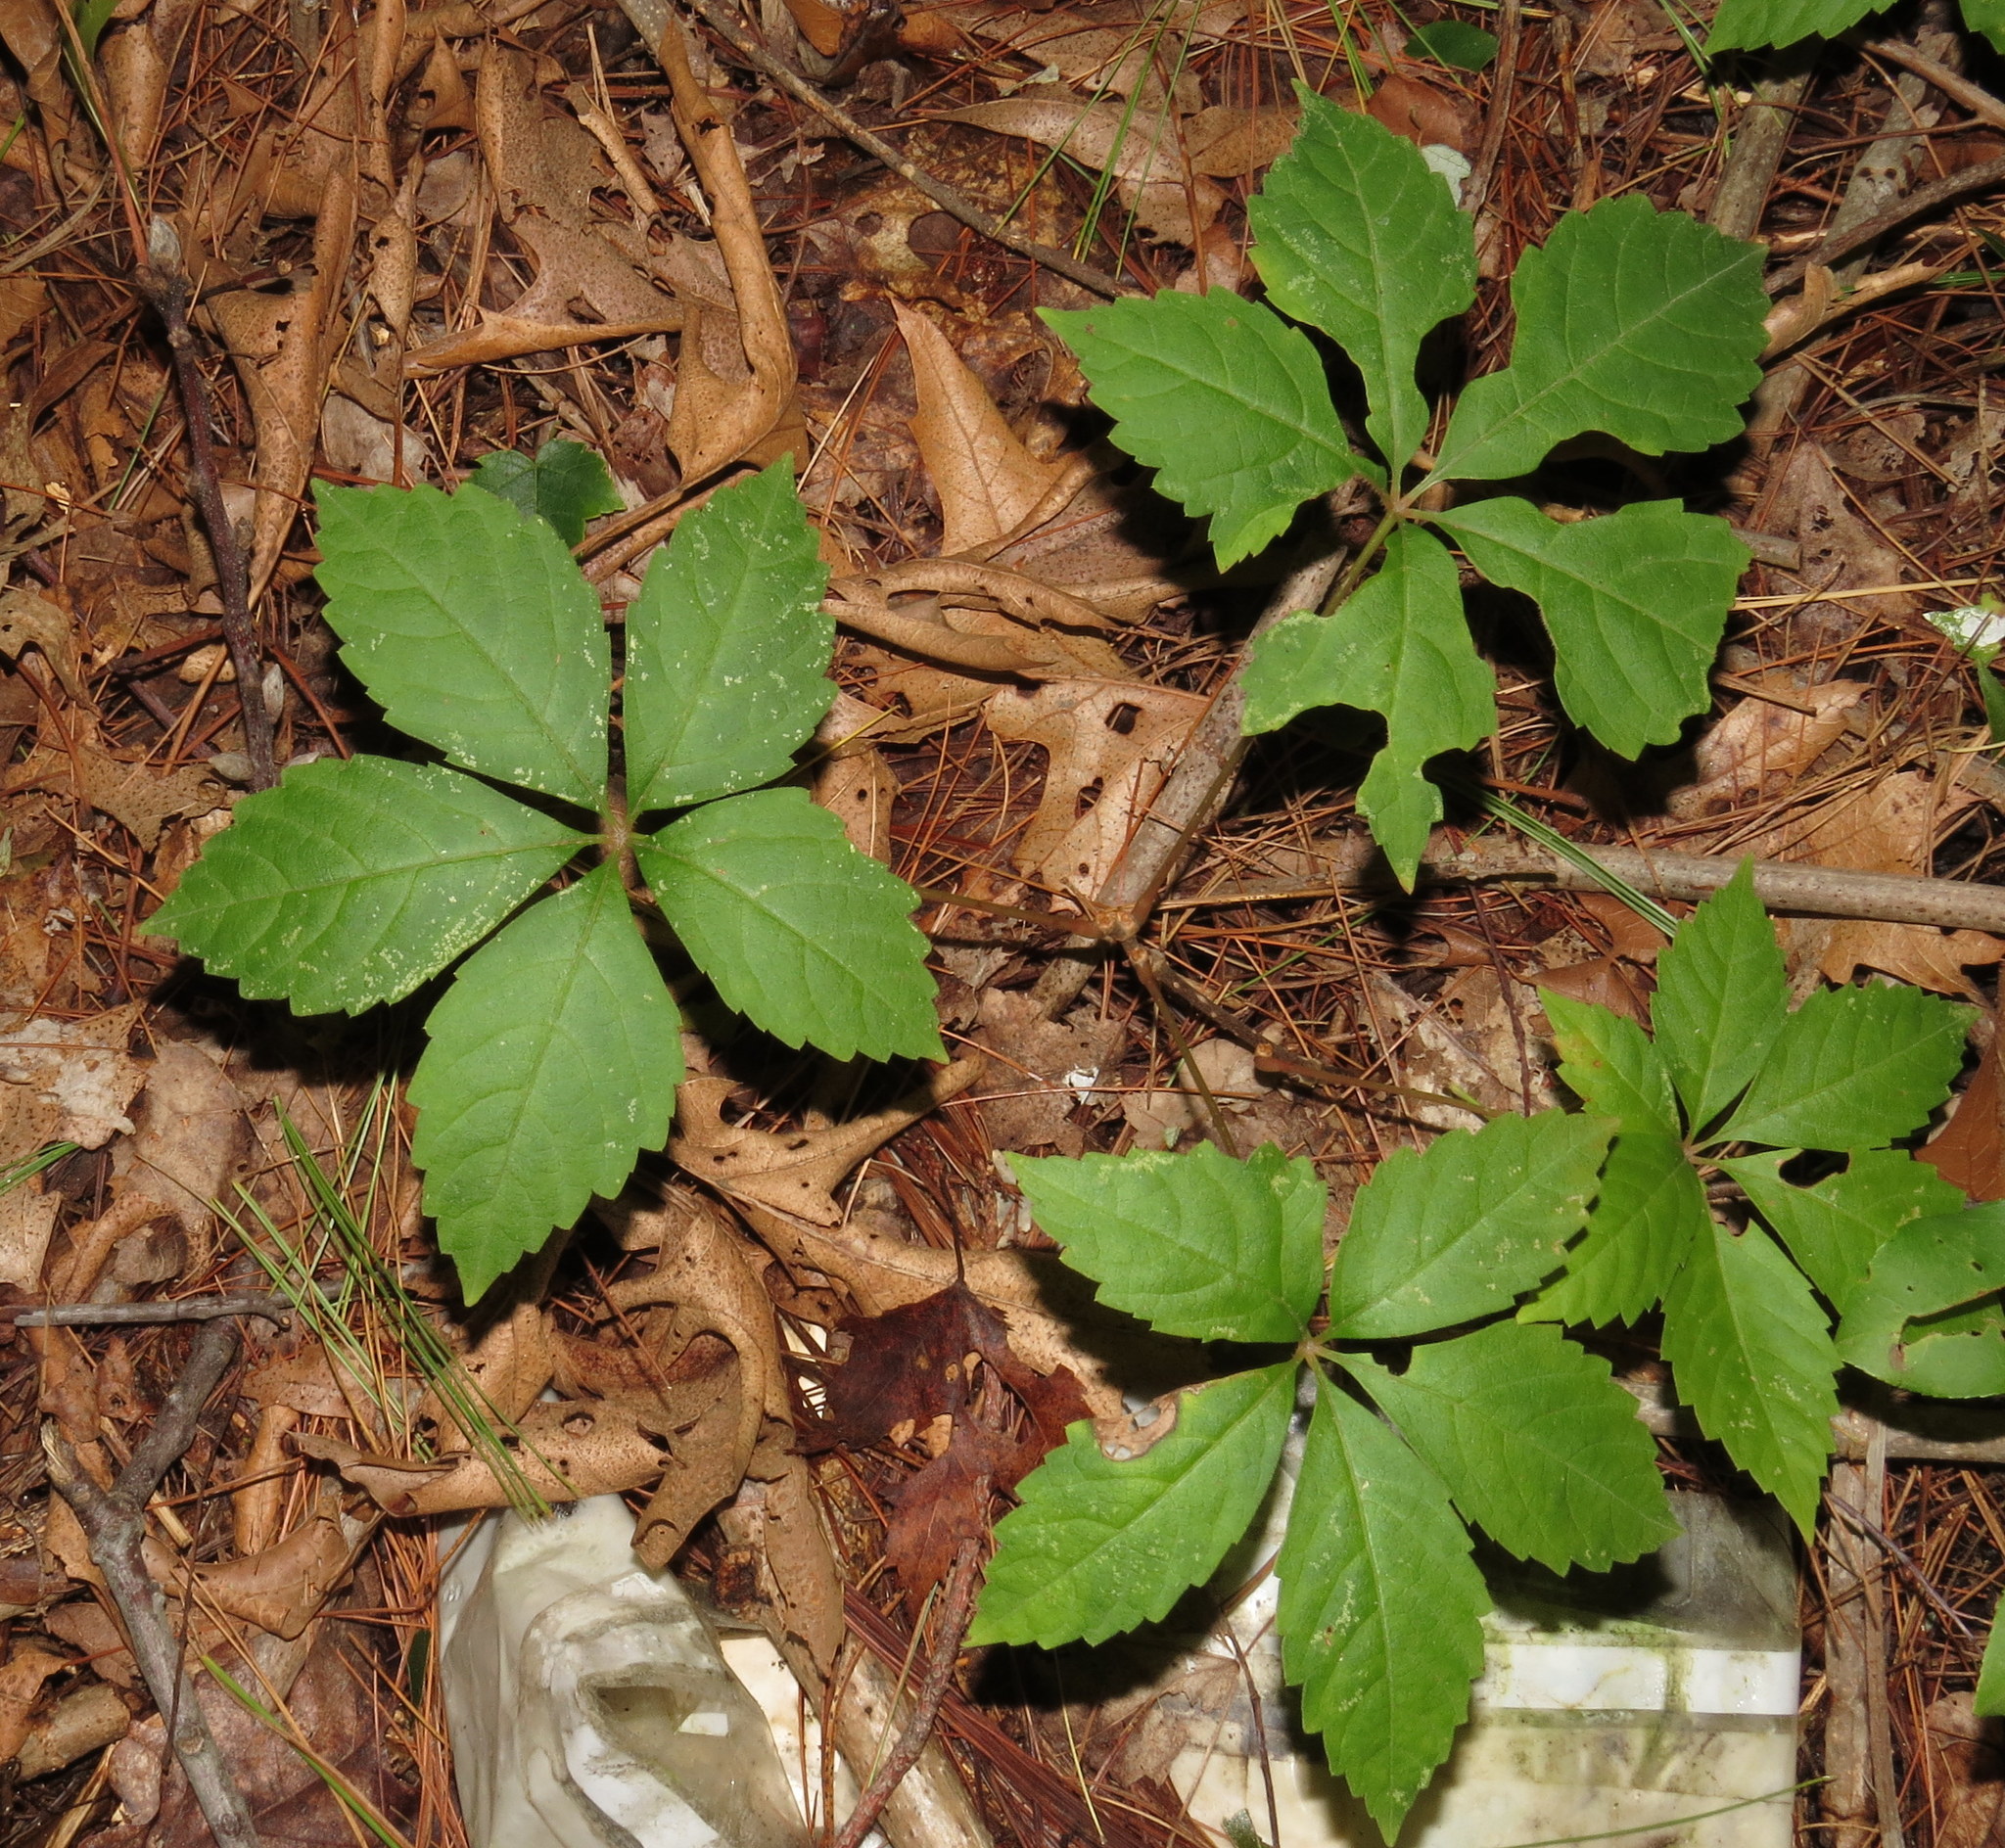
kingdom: Plantae
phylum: Tracheophyta
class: Magnoliopsida
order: Vitales
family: Vitaceae
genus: Parthenocissus
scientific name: Parthenocissus quinquefolia
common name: Virginia-creeper
